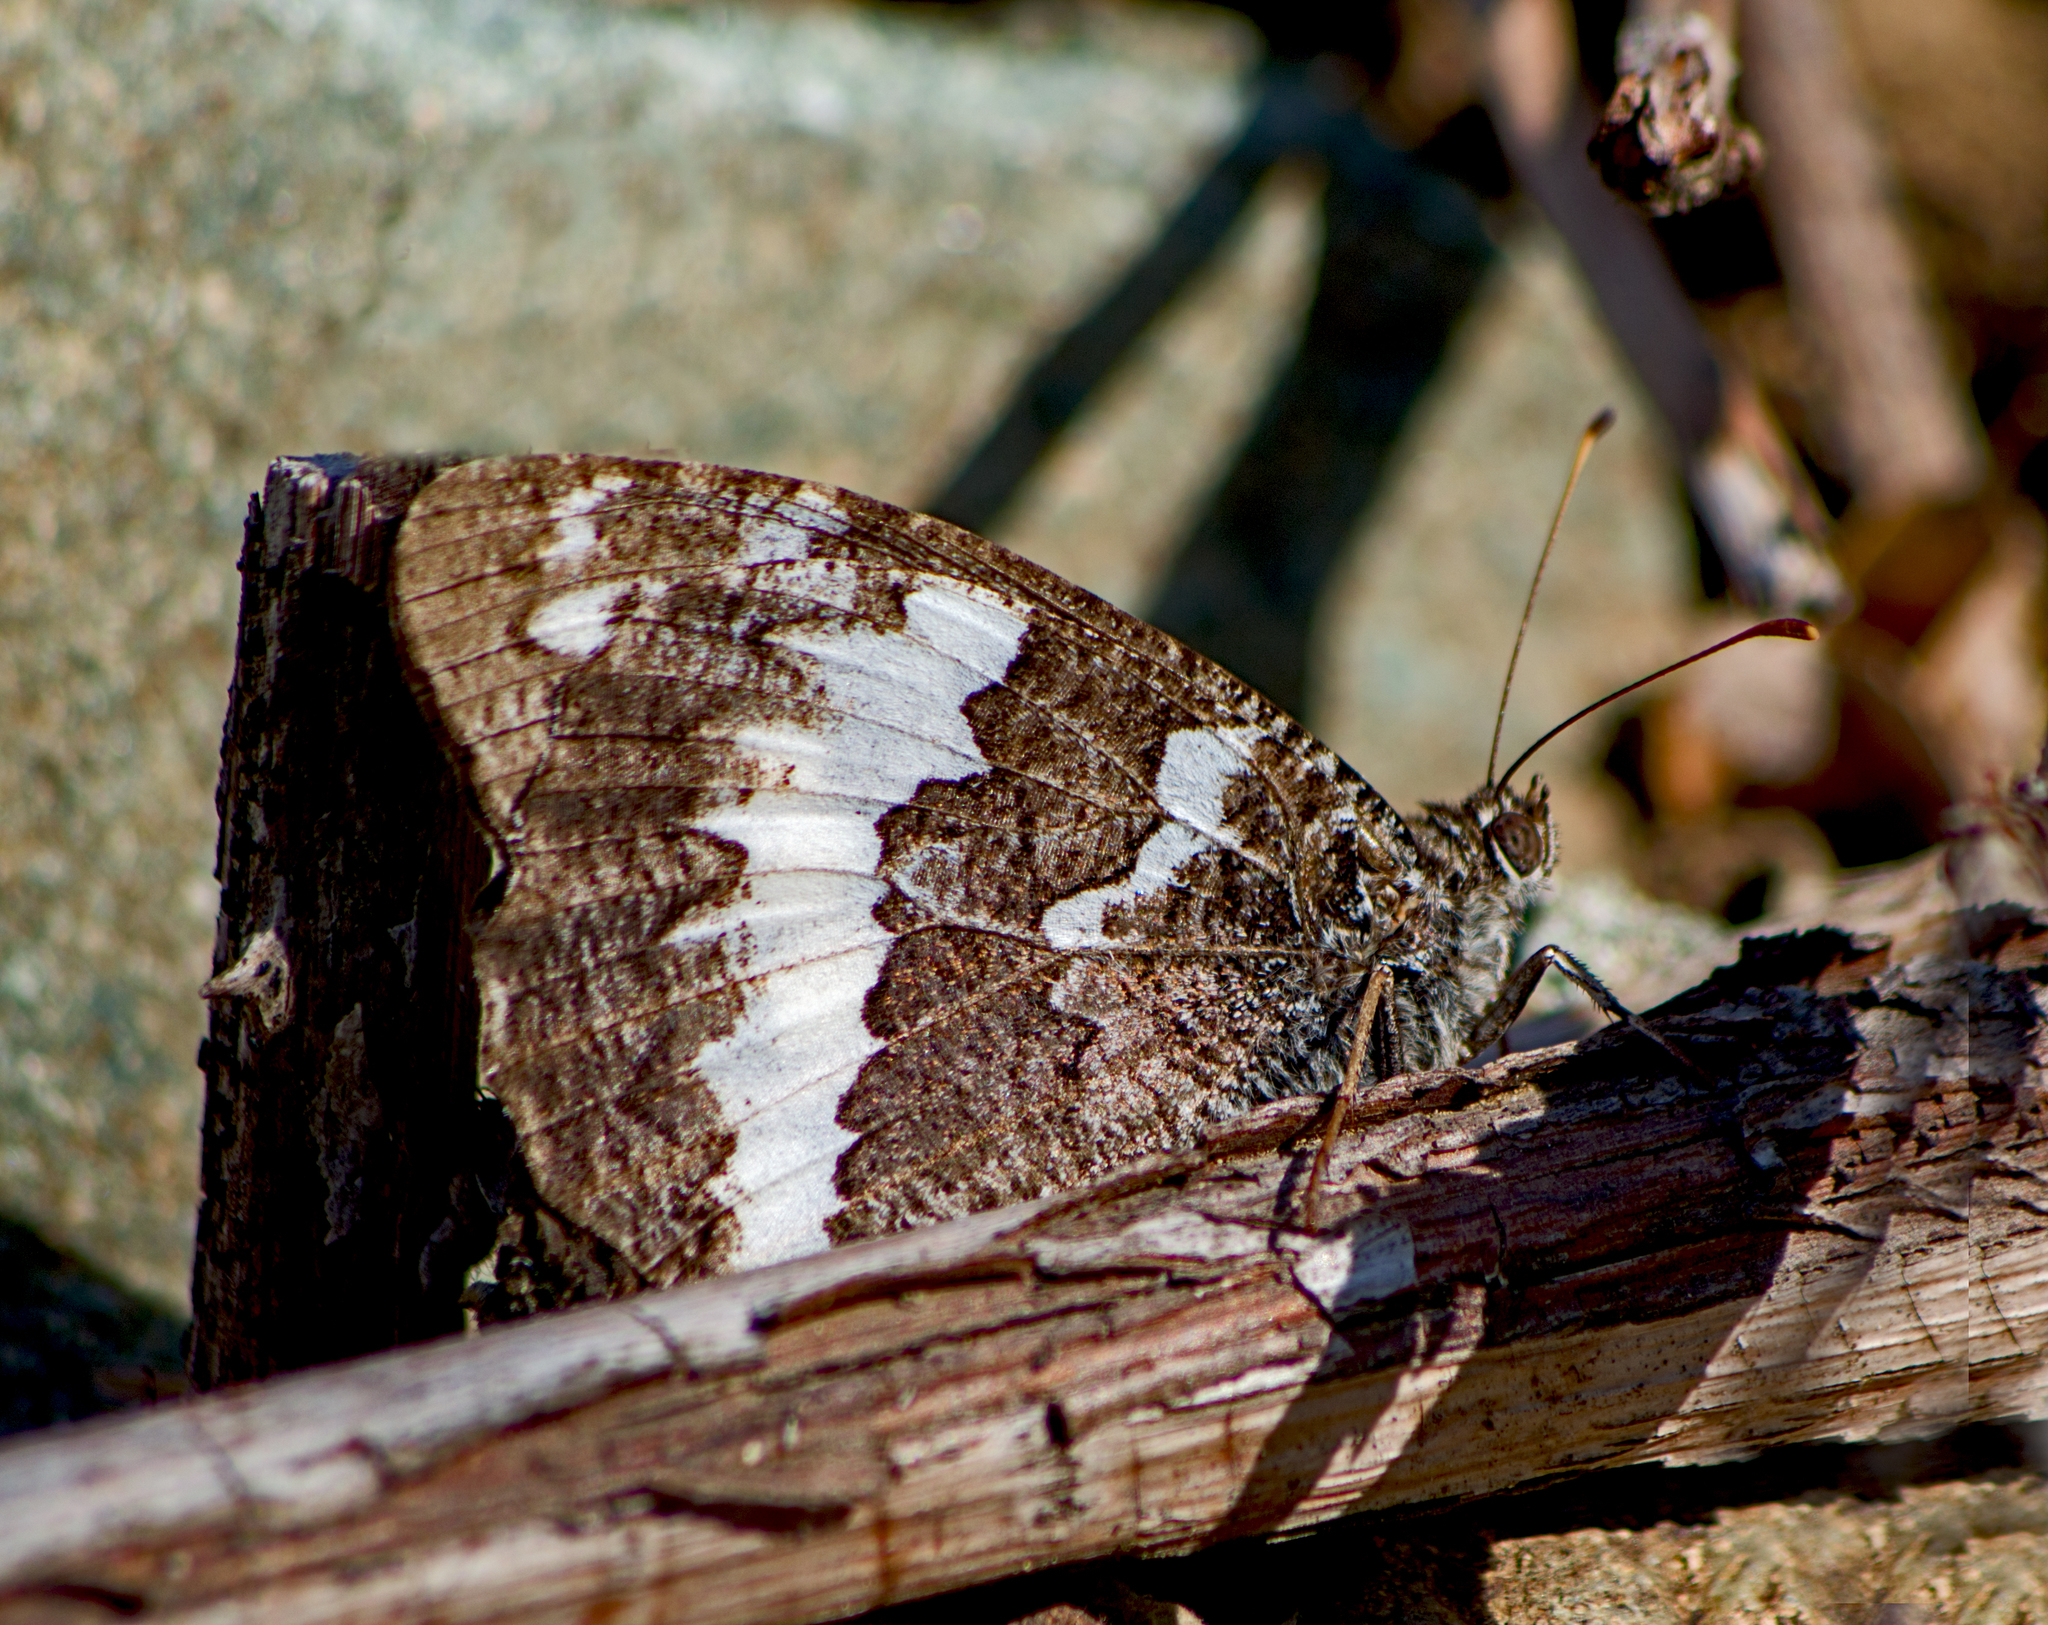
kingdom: Animalia
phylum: Arthropoda
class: Insecta
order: Lepidoptera
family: Lycaenidae
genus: Loweia
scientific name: Loweia tityrus
